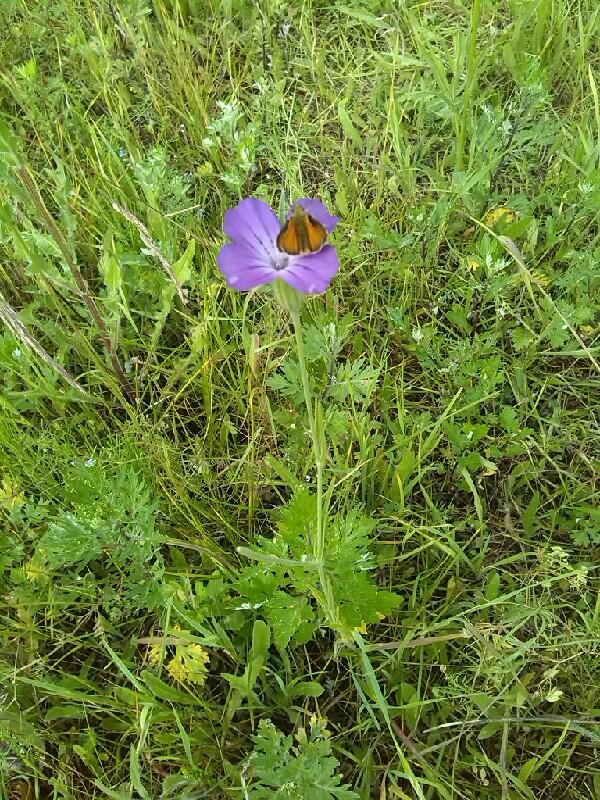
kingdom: Plantae
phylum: Tracheophyta
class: Magnoliopsida
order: Caryophyllales
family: Caryophyllaceae
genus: Agrostemma
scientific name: Agrostemma githago
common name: Common corncockle
